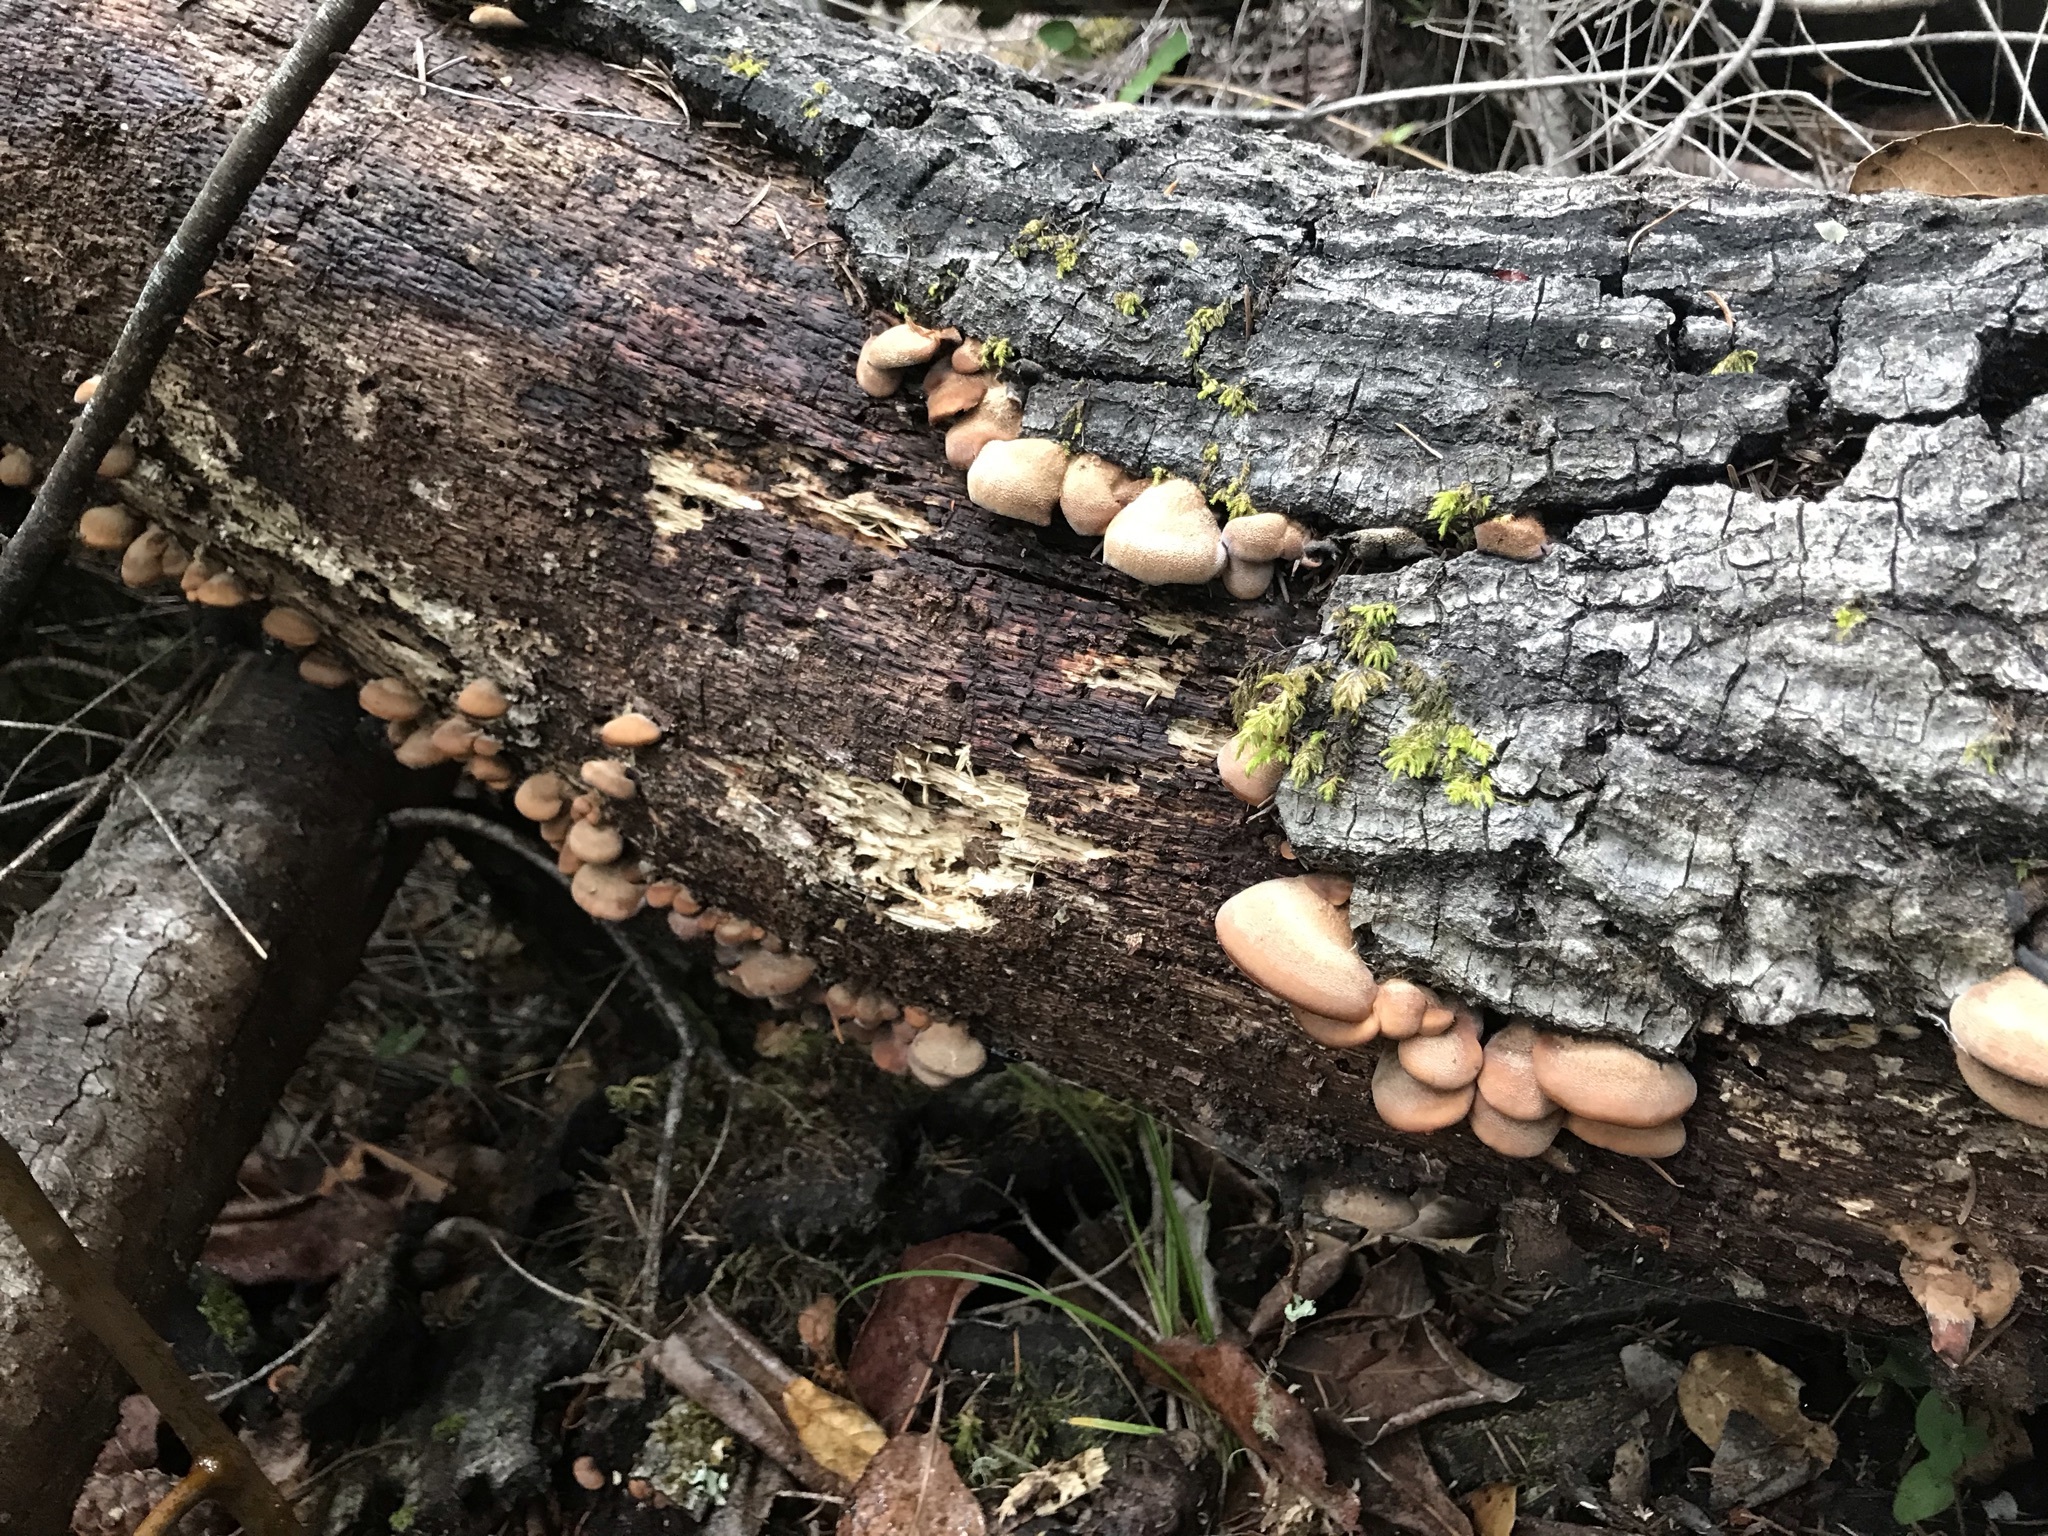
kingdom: Fungi
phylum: Basidiomycota
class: Agaricomycetes
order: Russulales
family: Auriscalpiaceae
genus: Lentinellus
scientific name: Lentinellus ursinus
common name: Bear lentinus
